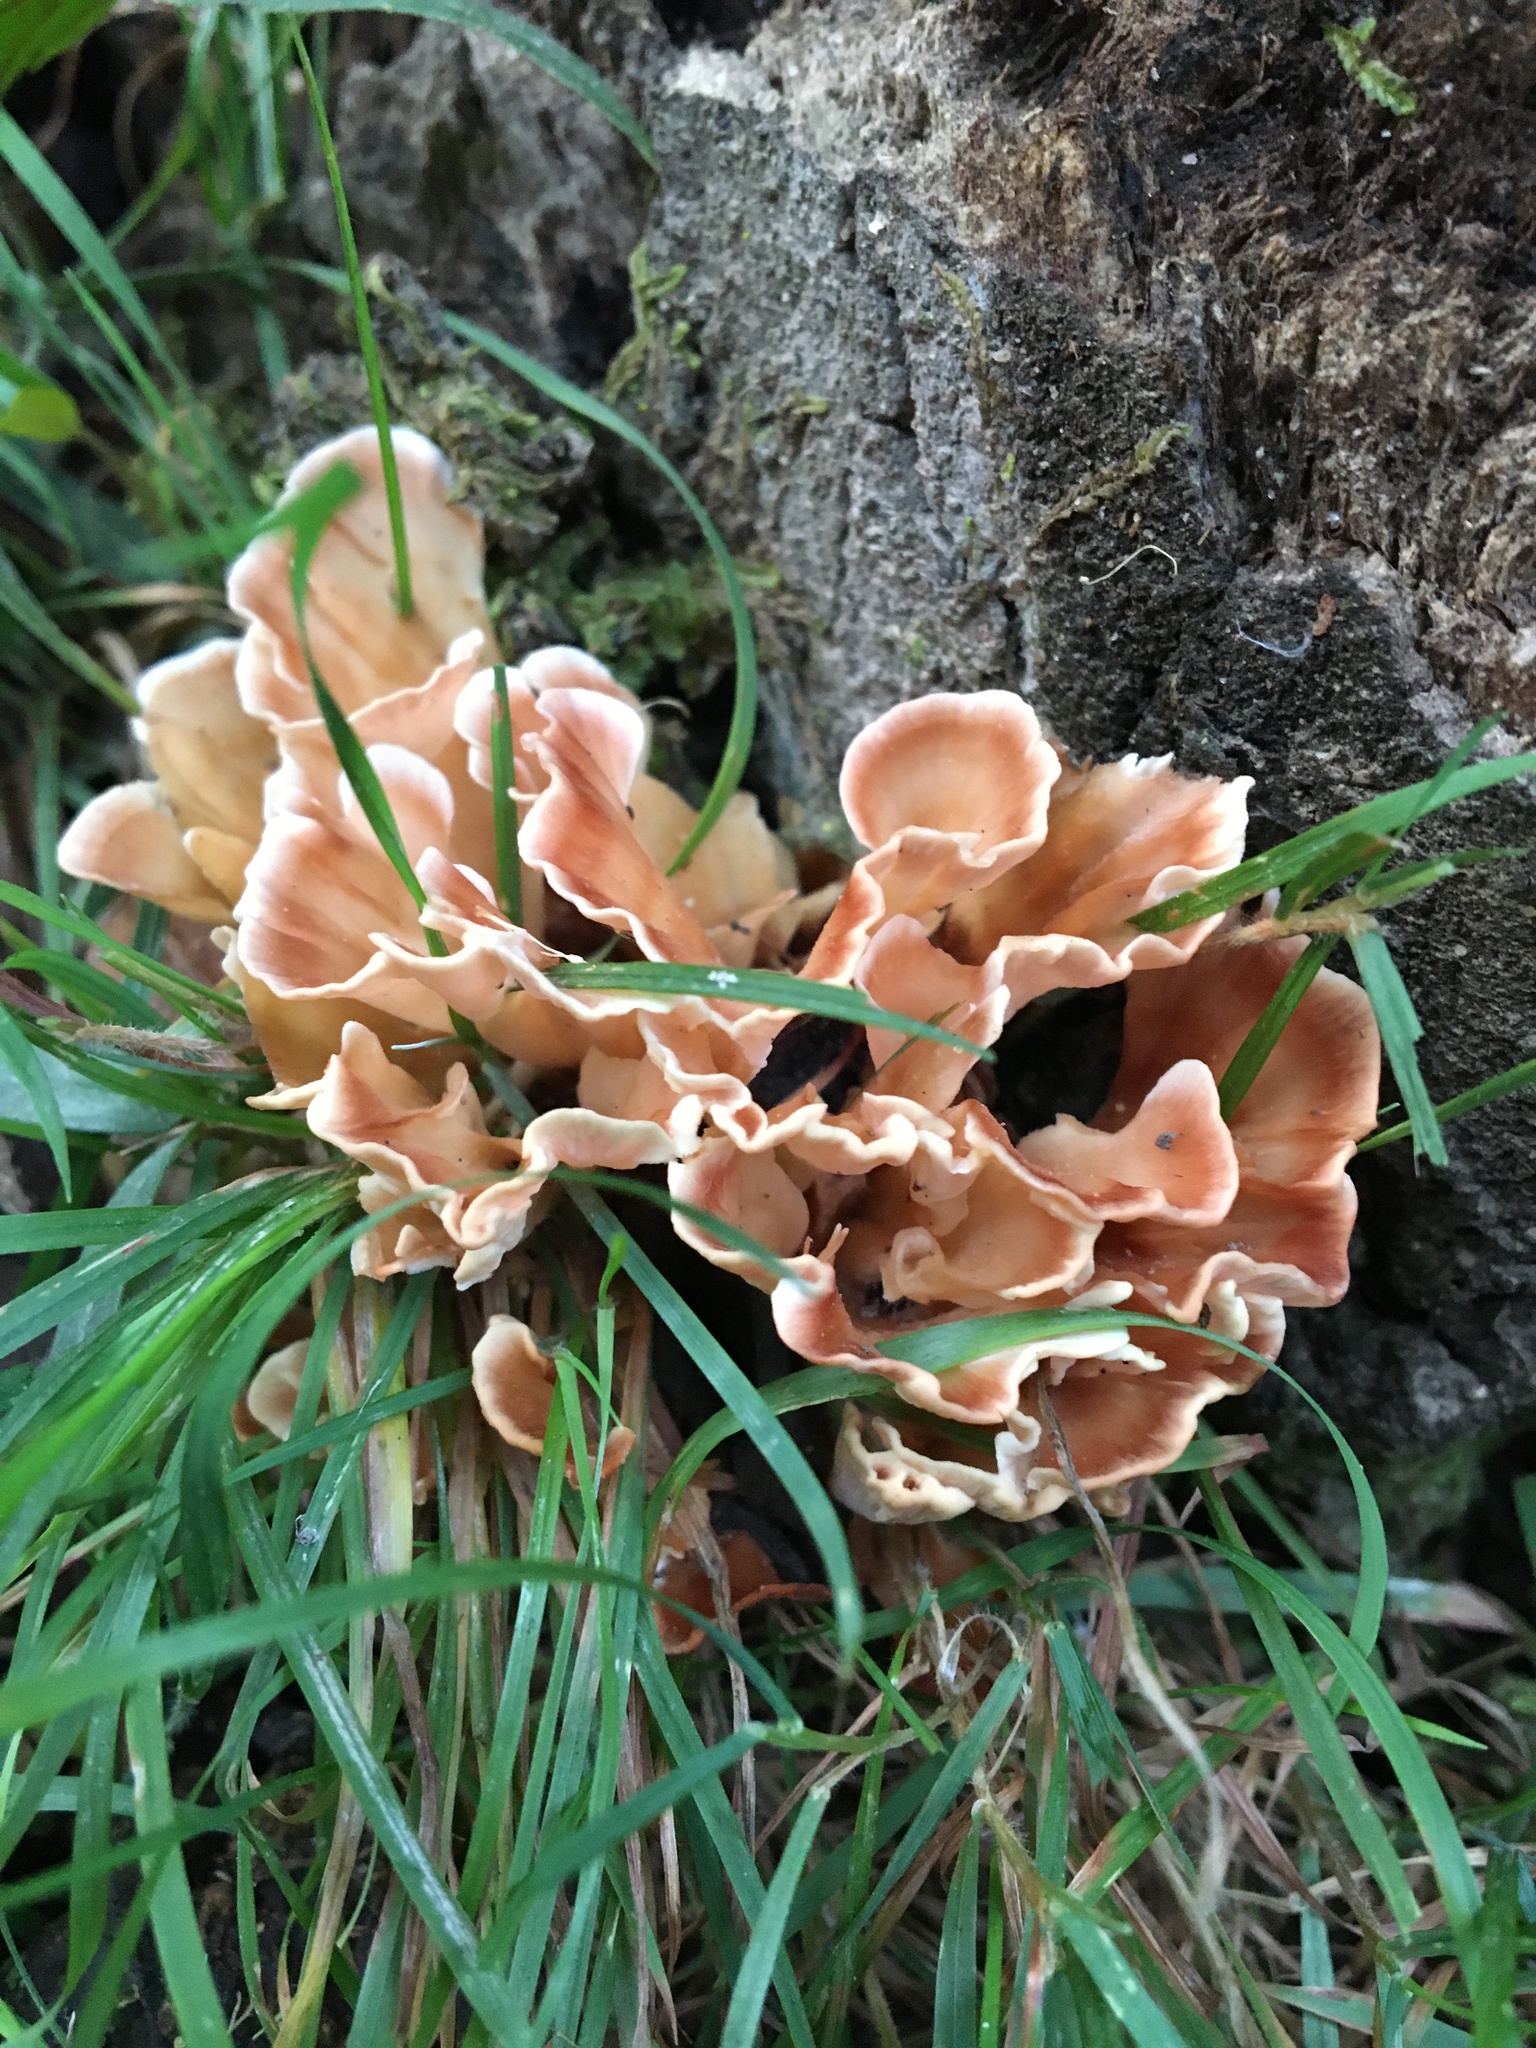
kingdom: Fungi
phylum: Basidiomycota
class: Agaricomycetes
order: Polyporales
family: Podoscyphaceae
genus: Podoscypha
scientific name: Podoscypha petalodes
